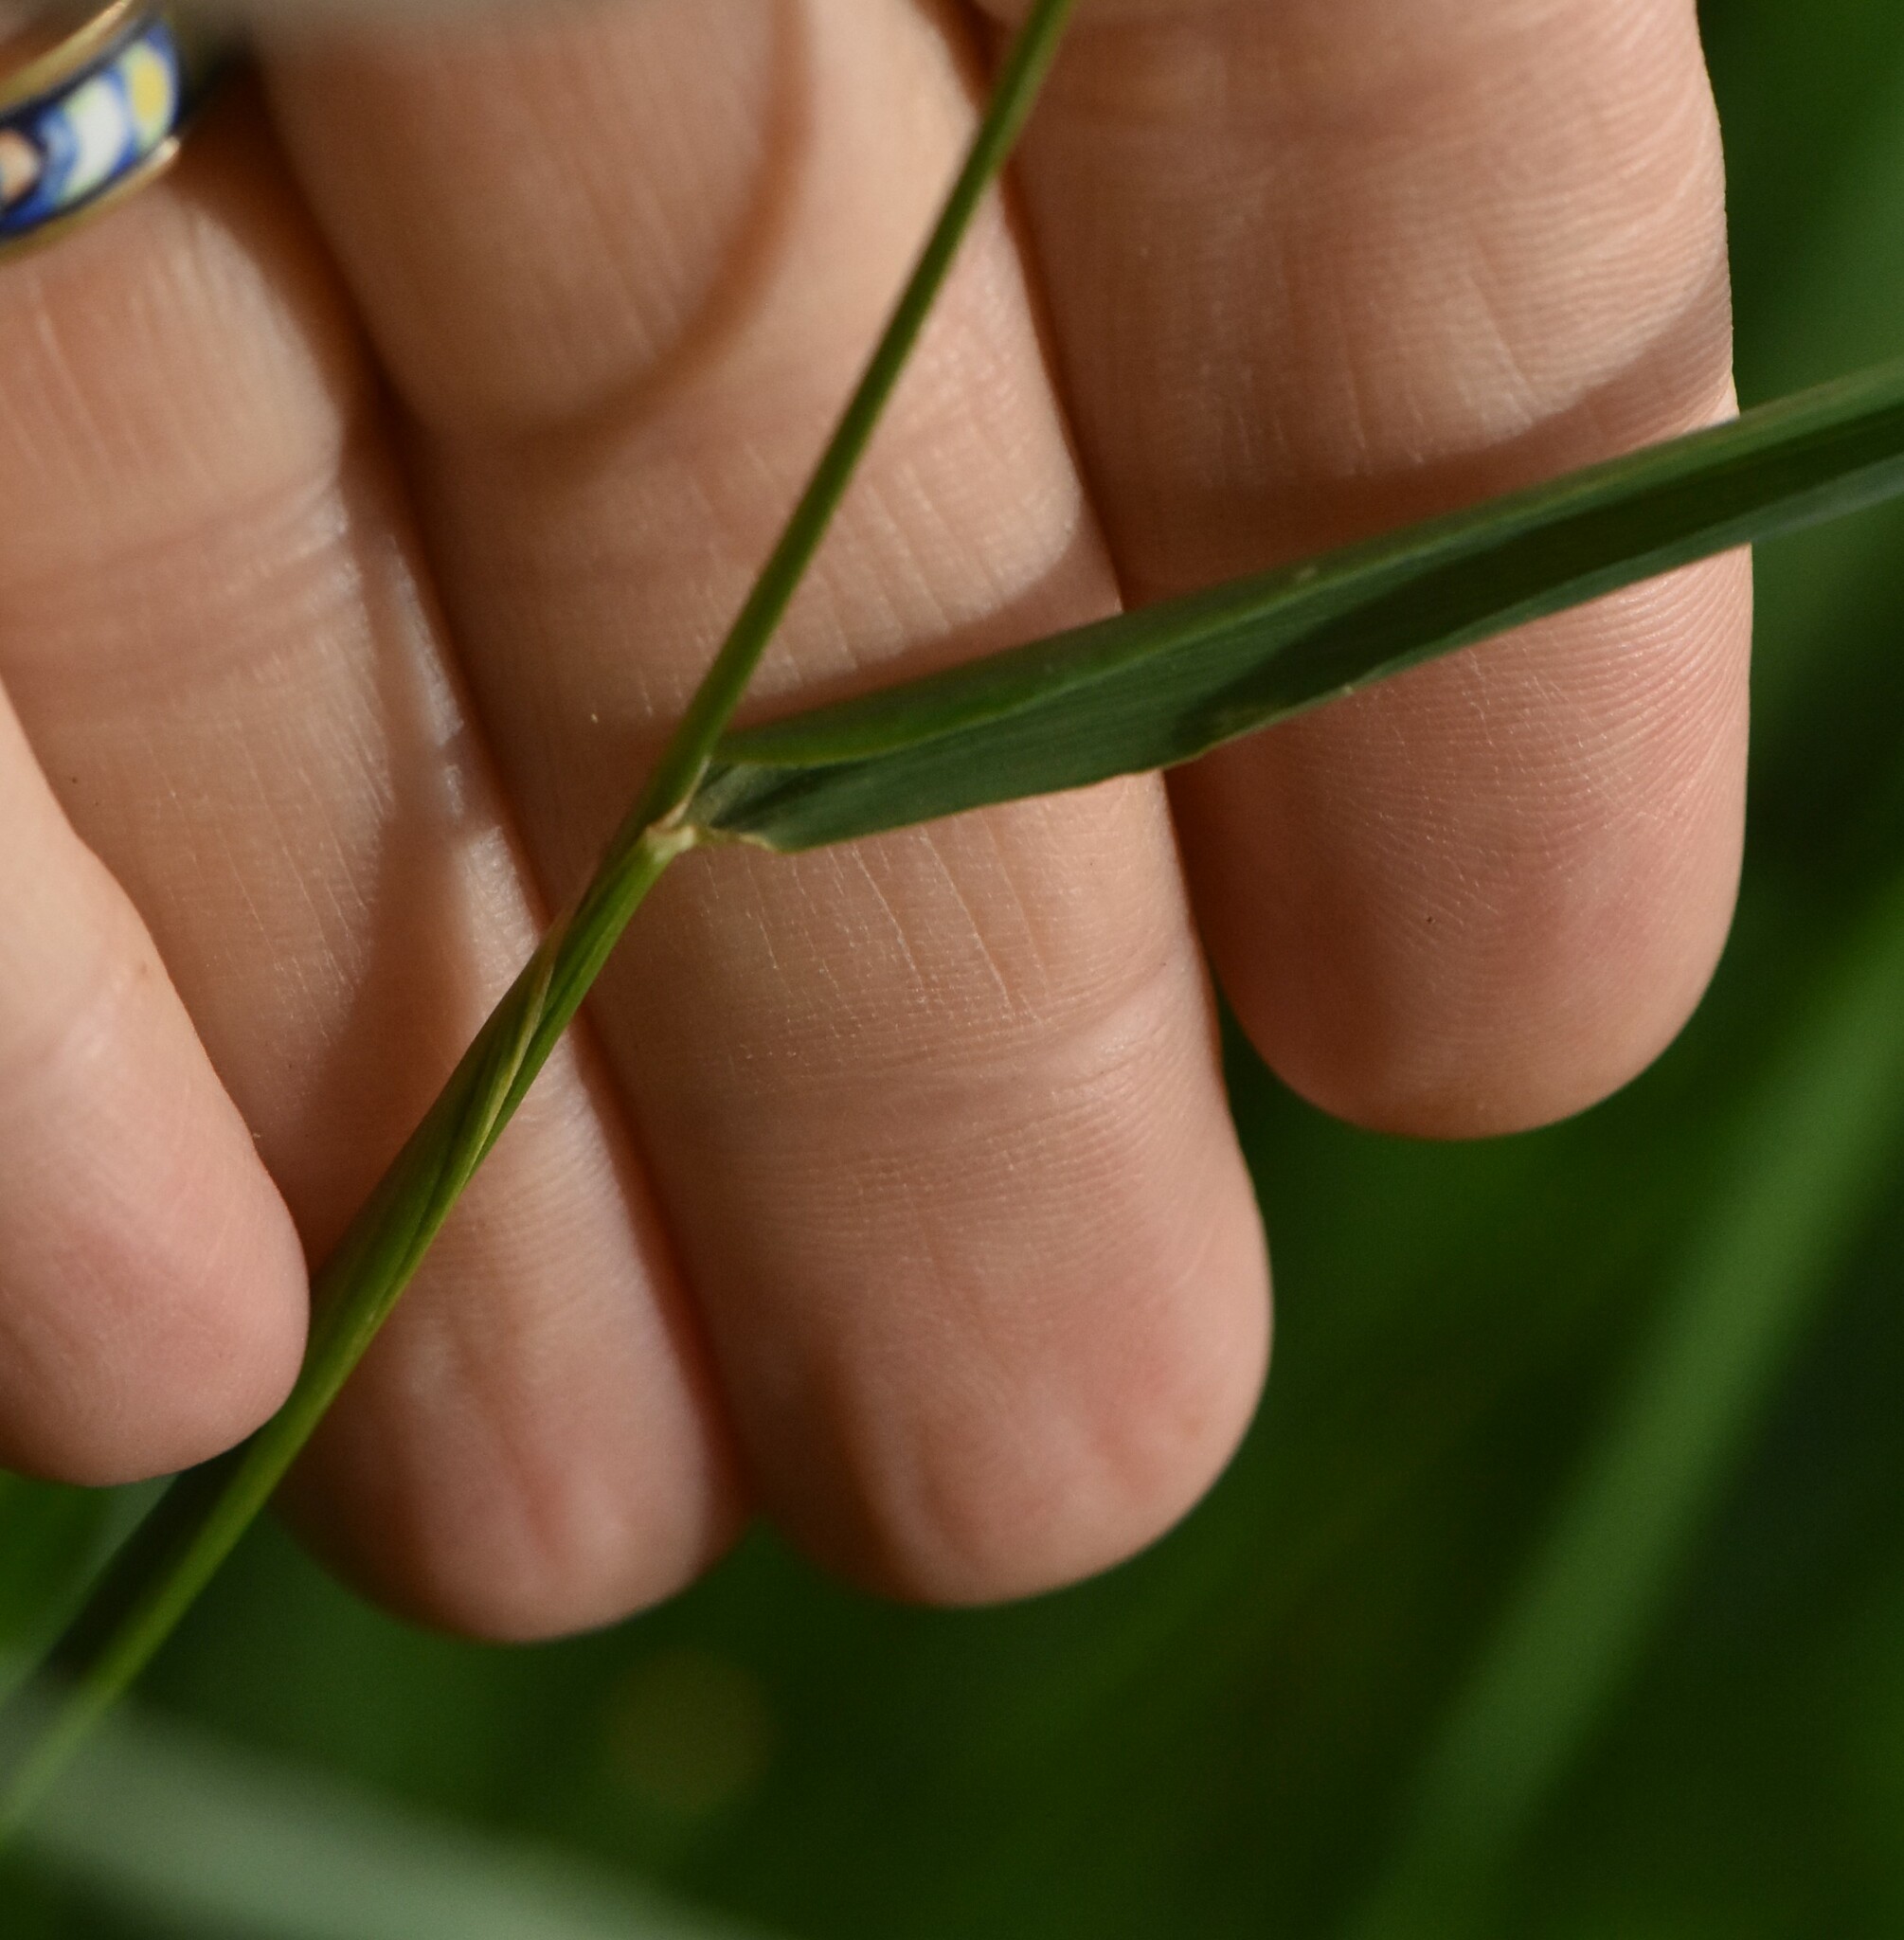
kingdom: Plantae
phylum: Tracheophyta
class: Liliopsida
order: Poales
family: Poaceae
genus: Alopecurus
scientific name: Alopecurus pratensis
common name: Meadow foxtail
